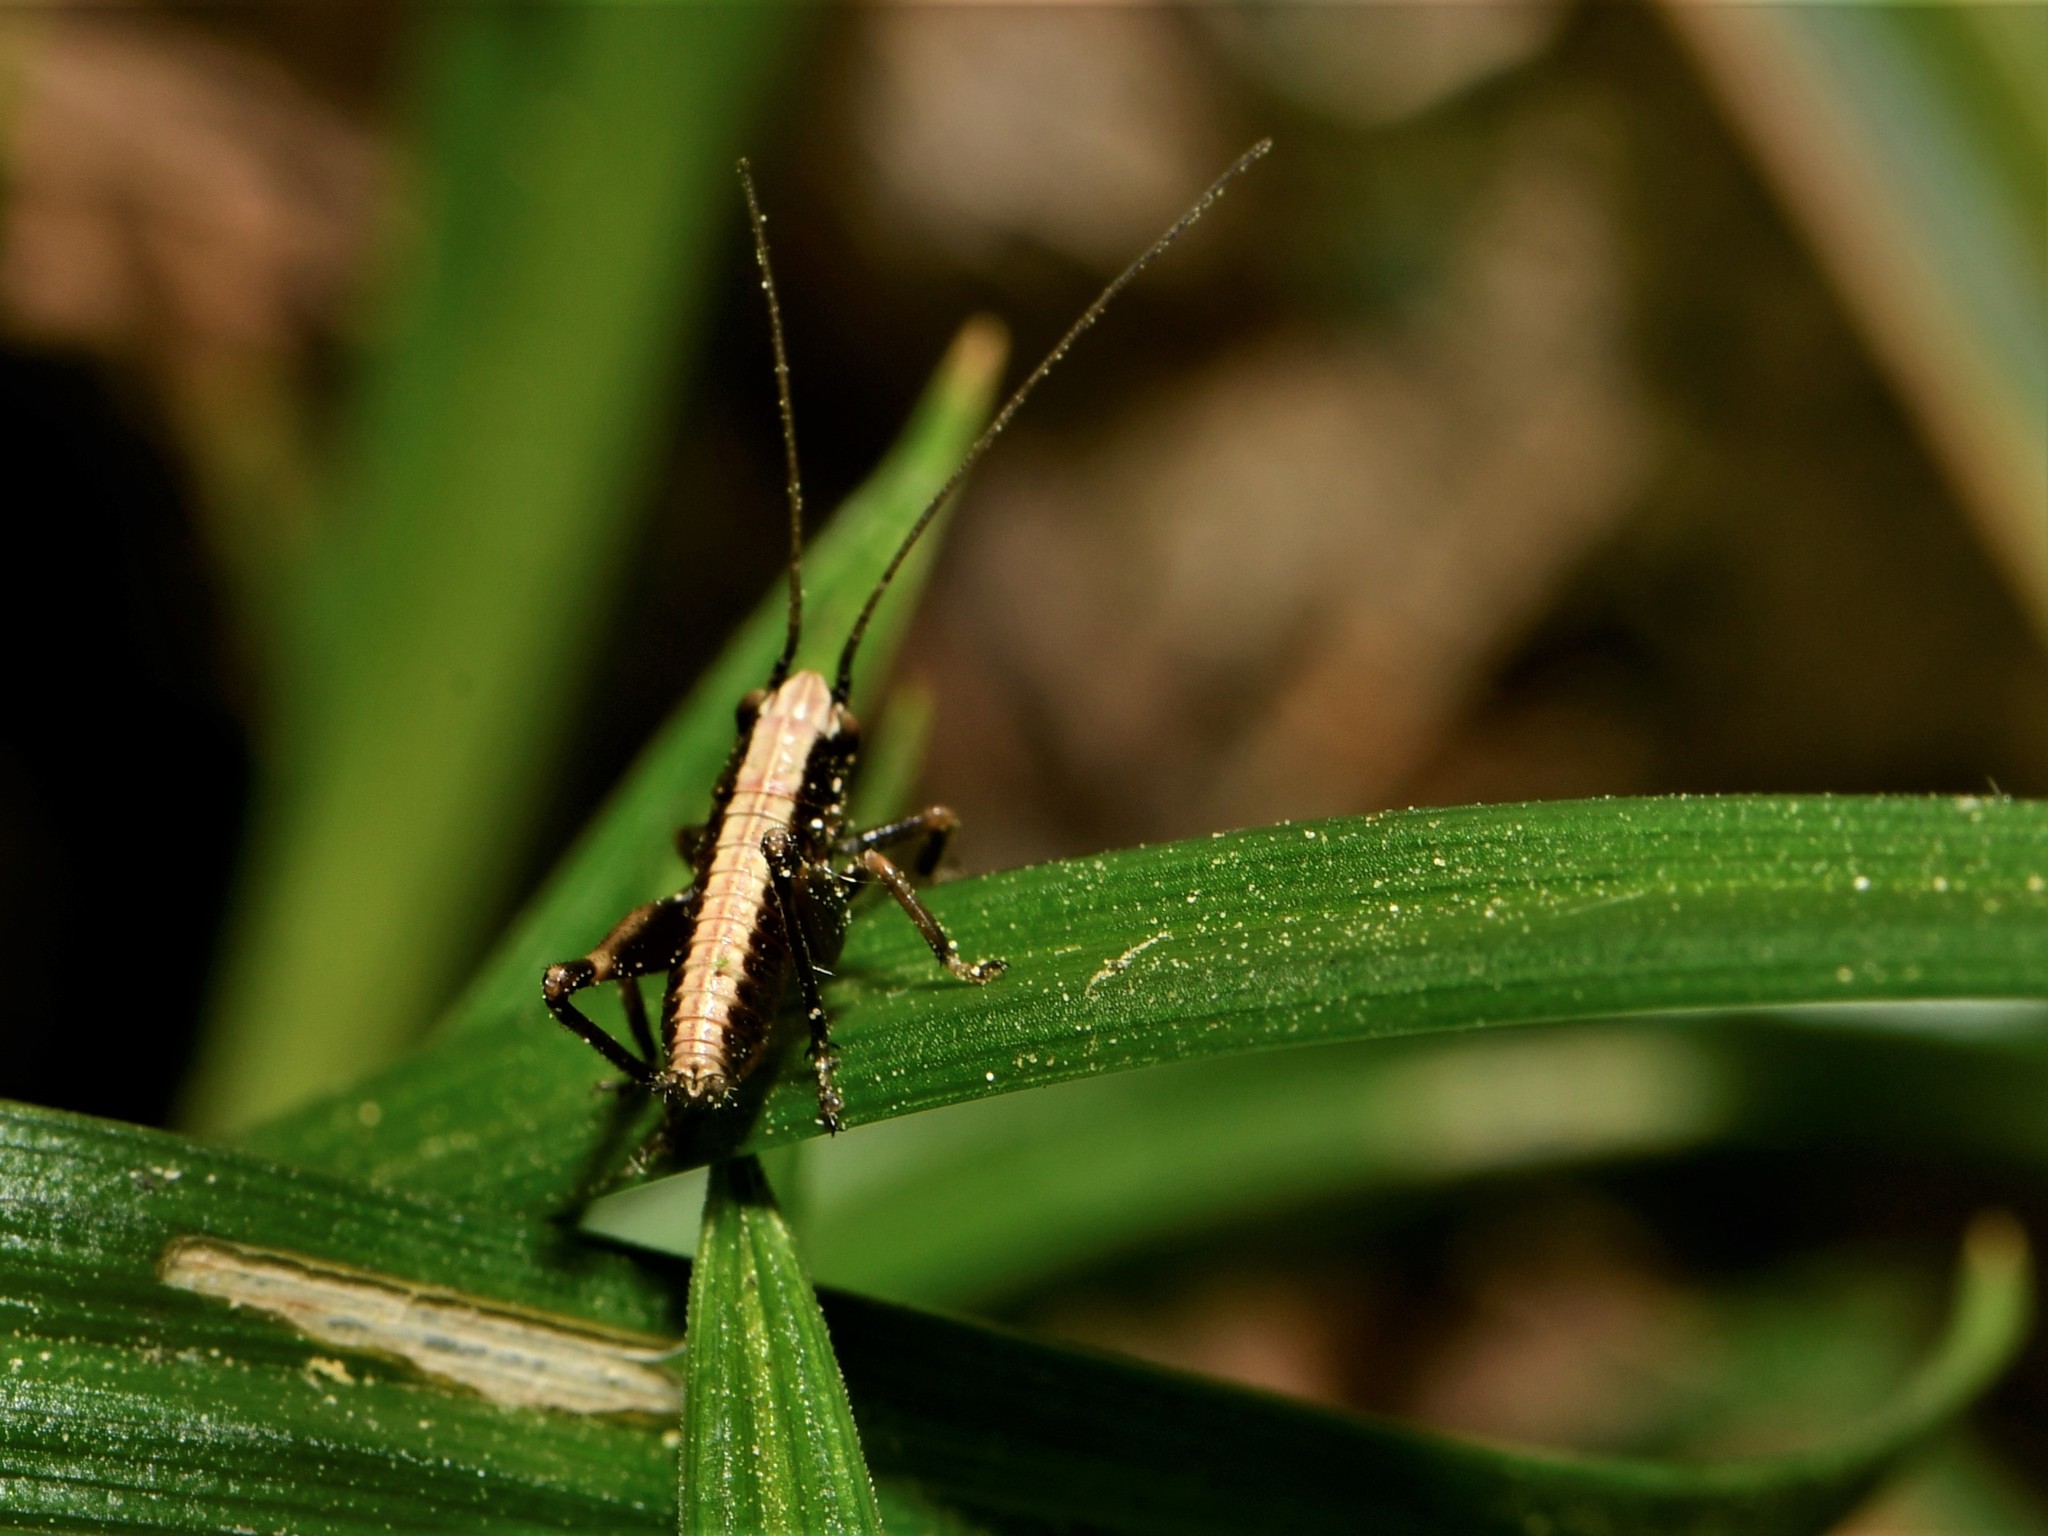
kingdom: Animalia
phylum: Arthropoda
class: Insecta
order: Orthoptera
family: Tettigoniidae
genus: Pholidoptera
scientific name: Pholidoptera griseoaptera
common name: Dark bush-cricket
